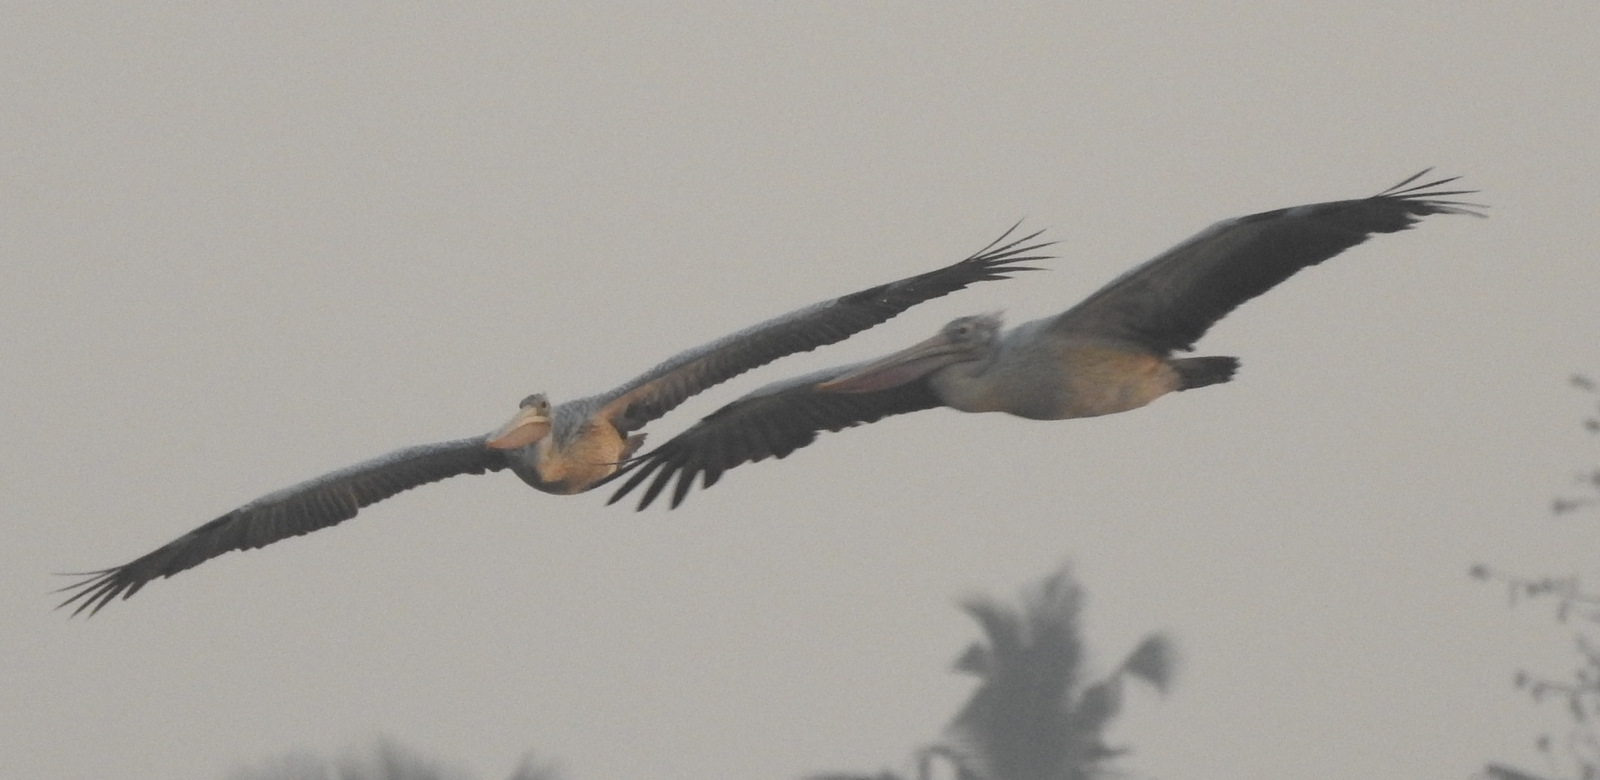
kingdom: Animalia
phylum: Chordata
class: Aves
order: Pelecaniformes
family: Pelecanidae
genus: Pelecanus
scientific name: Pelecanus philippensis
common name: Spot-billed pelican
